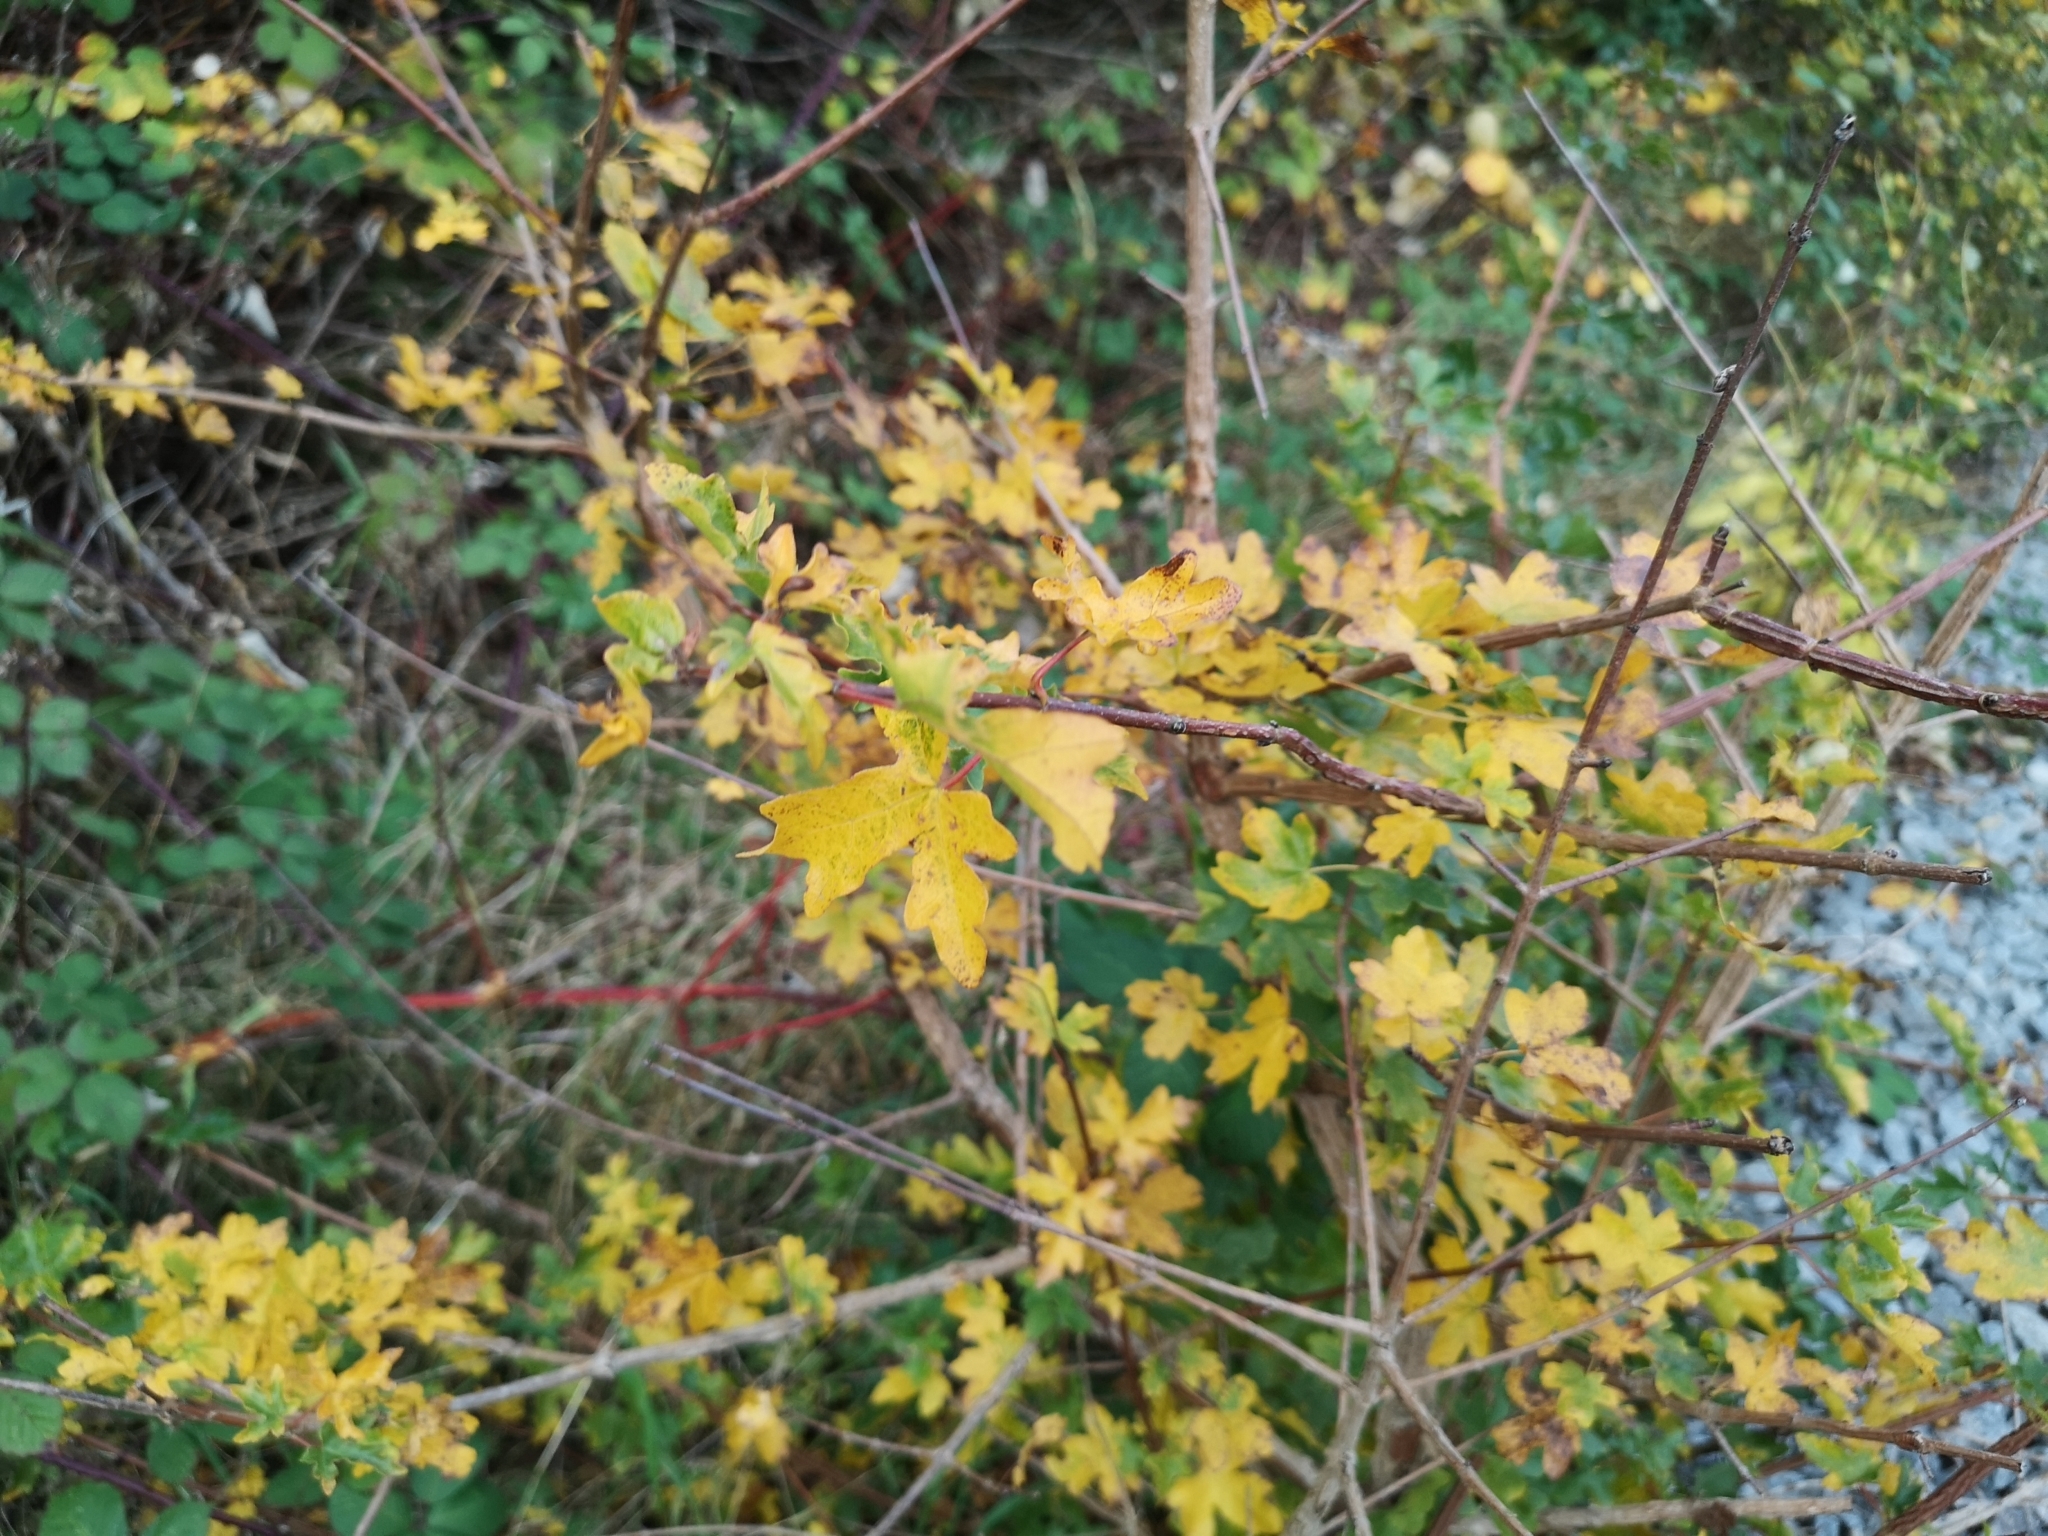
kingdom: Plantae
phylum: Tracheophyta
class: Magnoliopsida
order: Sapindales
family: Sapindaceae
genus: Acer
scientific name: Acer campestre
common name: Field maple
